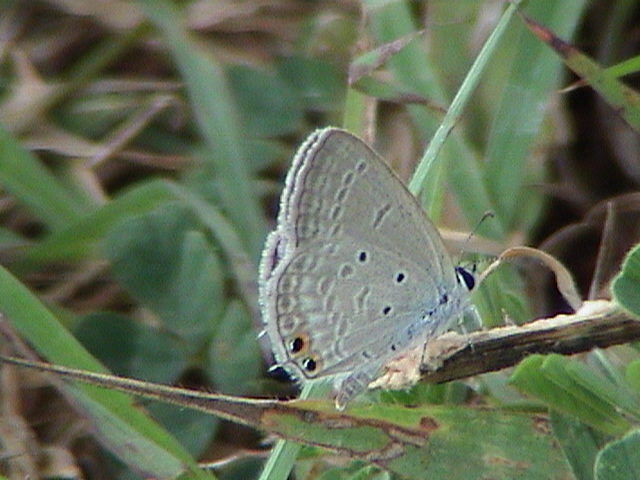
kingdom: Animalia
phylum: Arthropoda
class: Insecta
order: Lepidoptera
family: Lycaenidae
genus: Euchrysops
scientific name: Euchrysops cnejus
